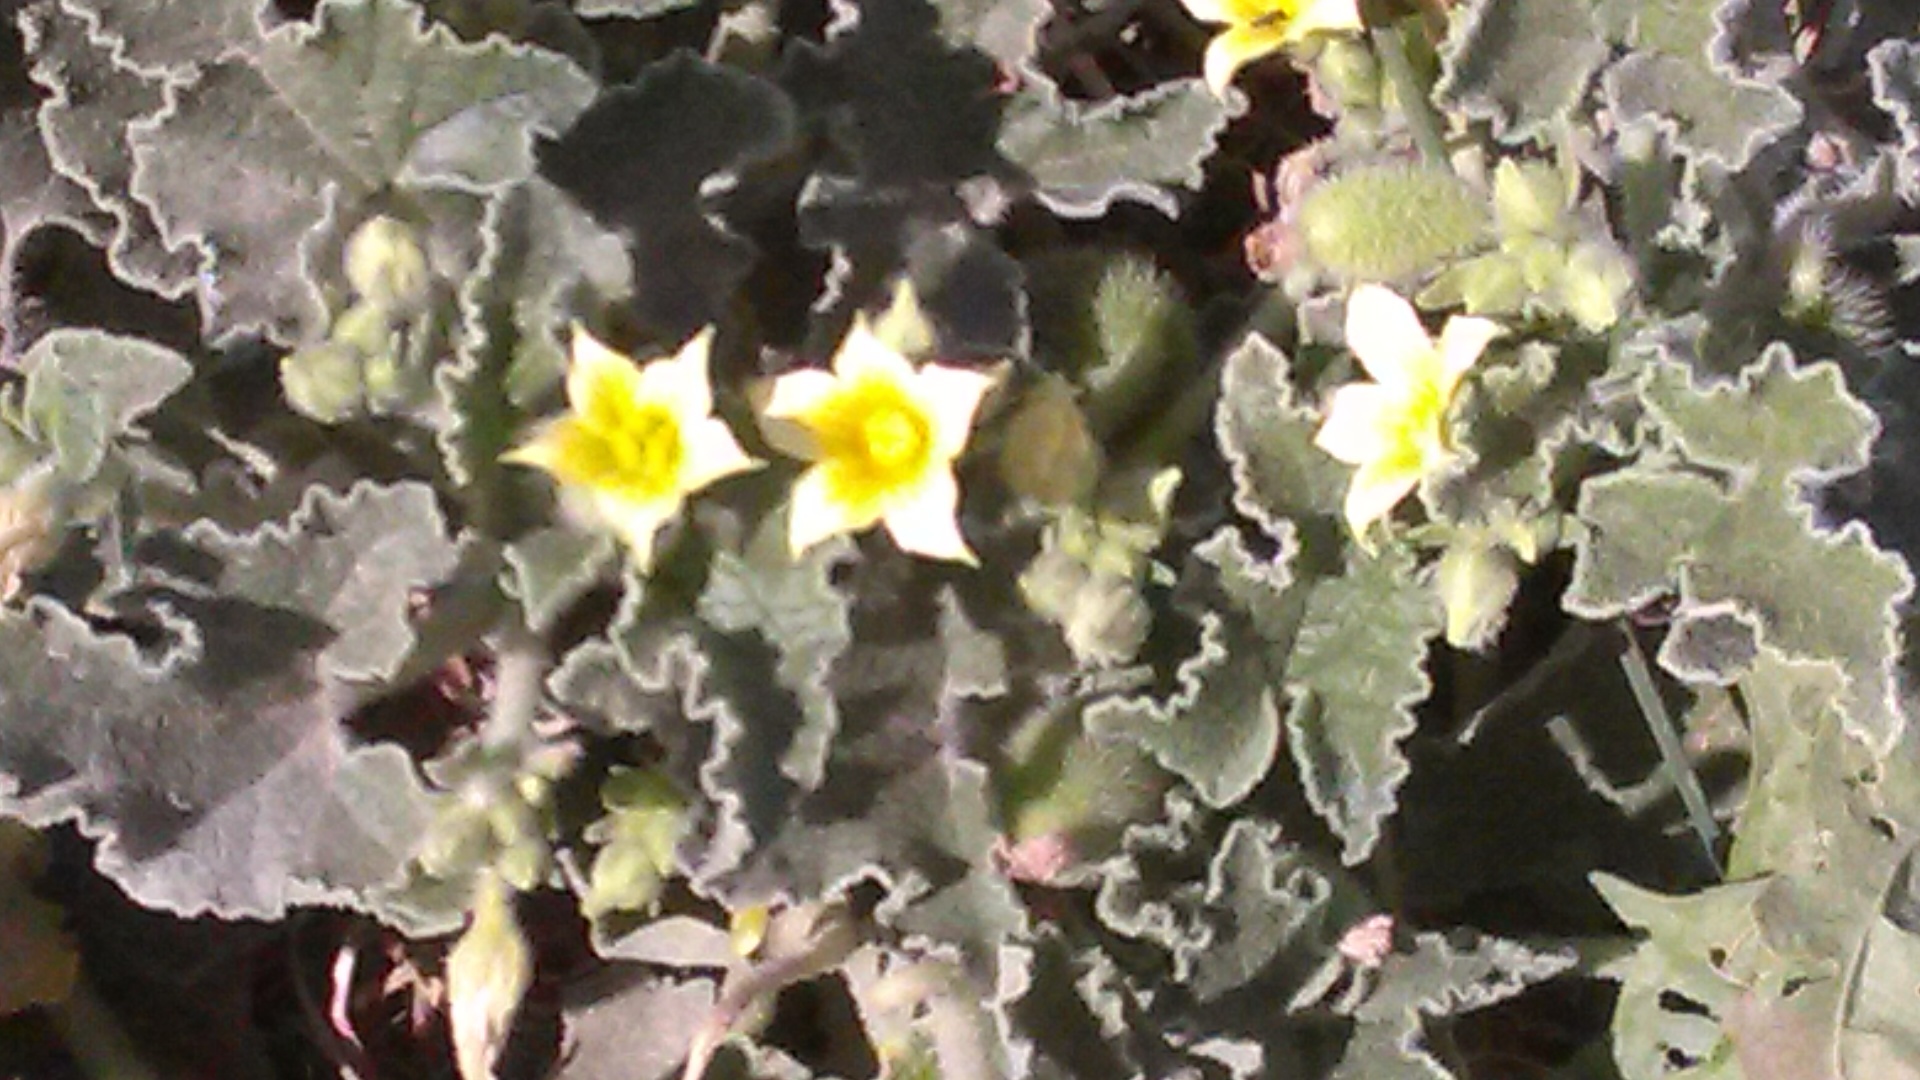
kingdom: Plantae
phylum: Tracheophyta
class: Magnoliopsida
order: Cucurbitales
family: Cucurbitaceae
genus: Ecballium
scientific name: Ecballium elaterium
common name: Squirting cucumber
